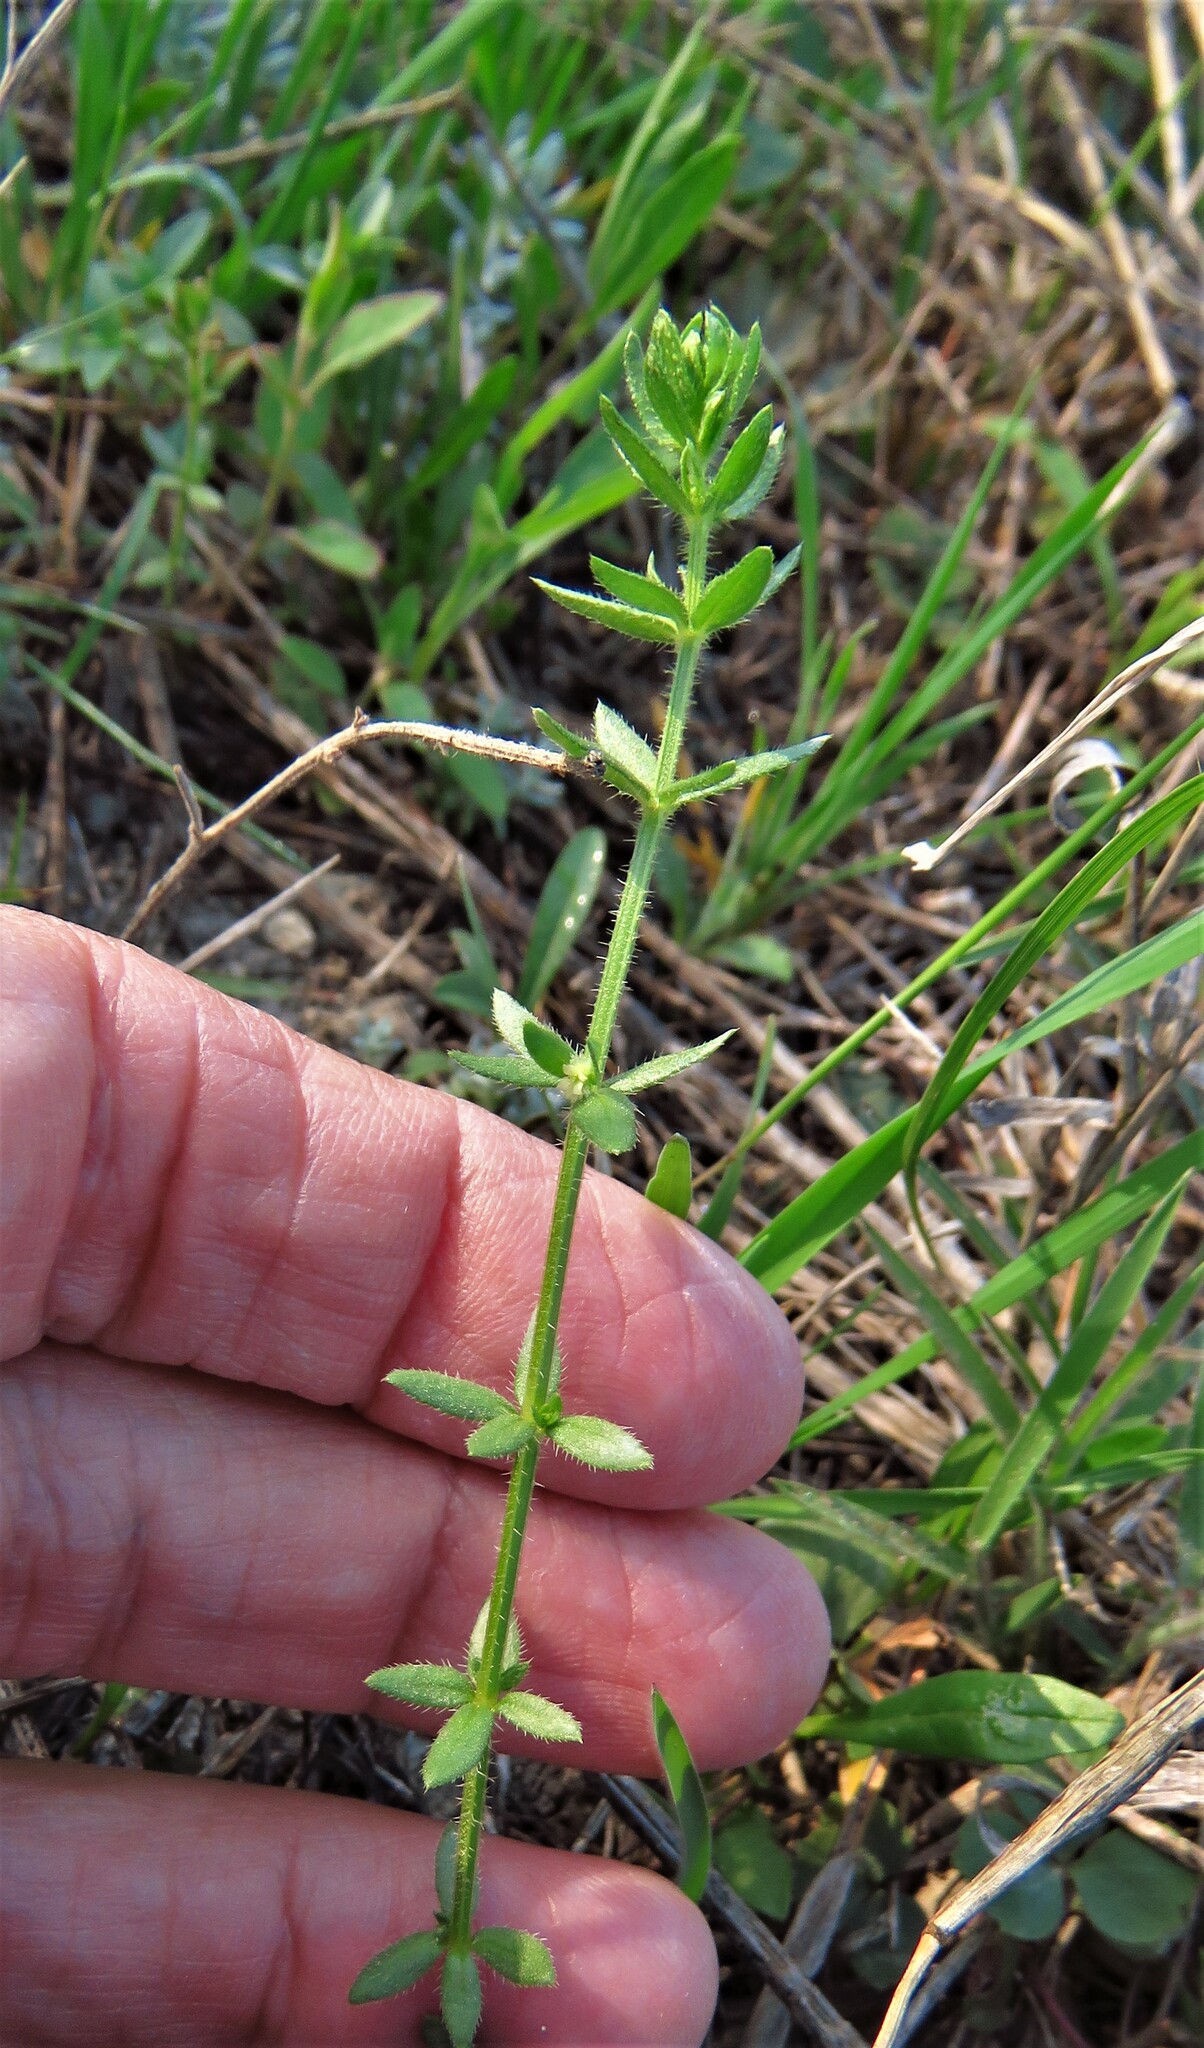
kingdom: Plantae
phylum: Tracheophyta
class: Magnoliopsida
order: Gentianales
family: Rubiaceae
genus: Galium
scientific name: Galium virgatum
